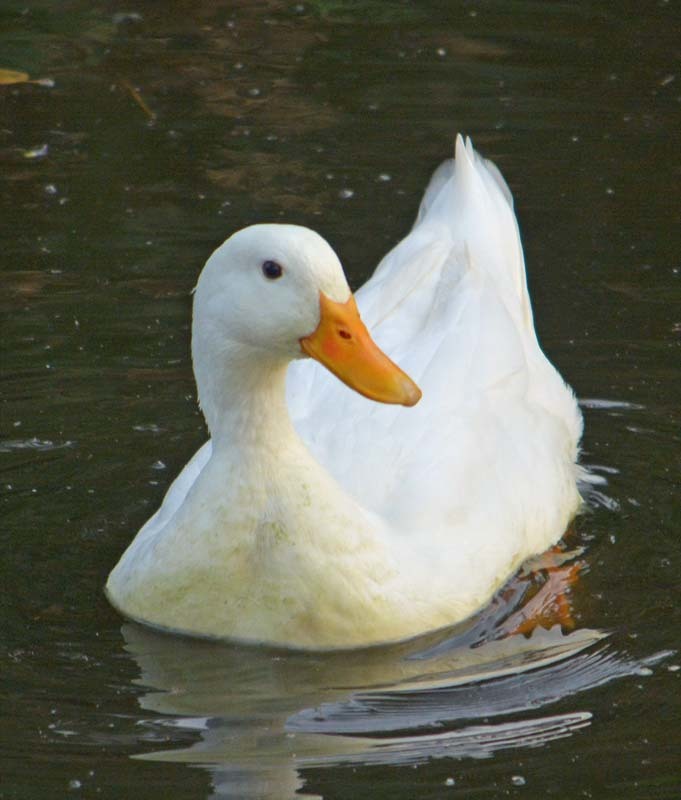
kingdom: Animalia
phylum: Chordata
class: Aves
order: Anseriformes
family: Anatidae
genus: Anas
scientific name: Anas platyrhynchos
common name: Mallard
